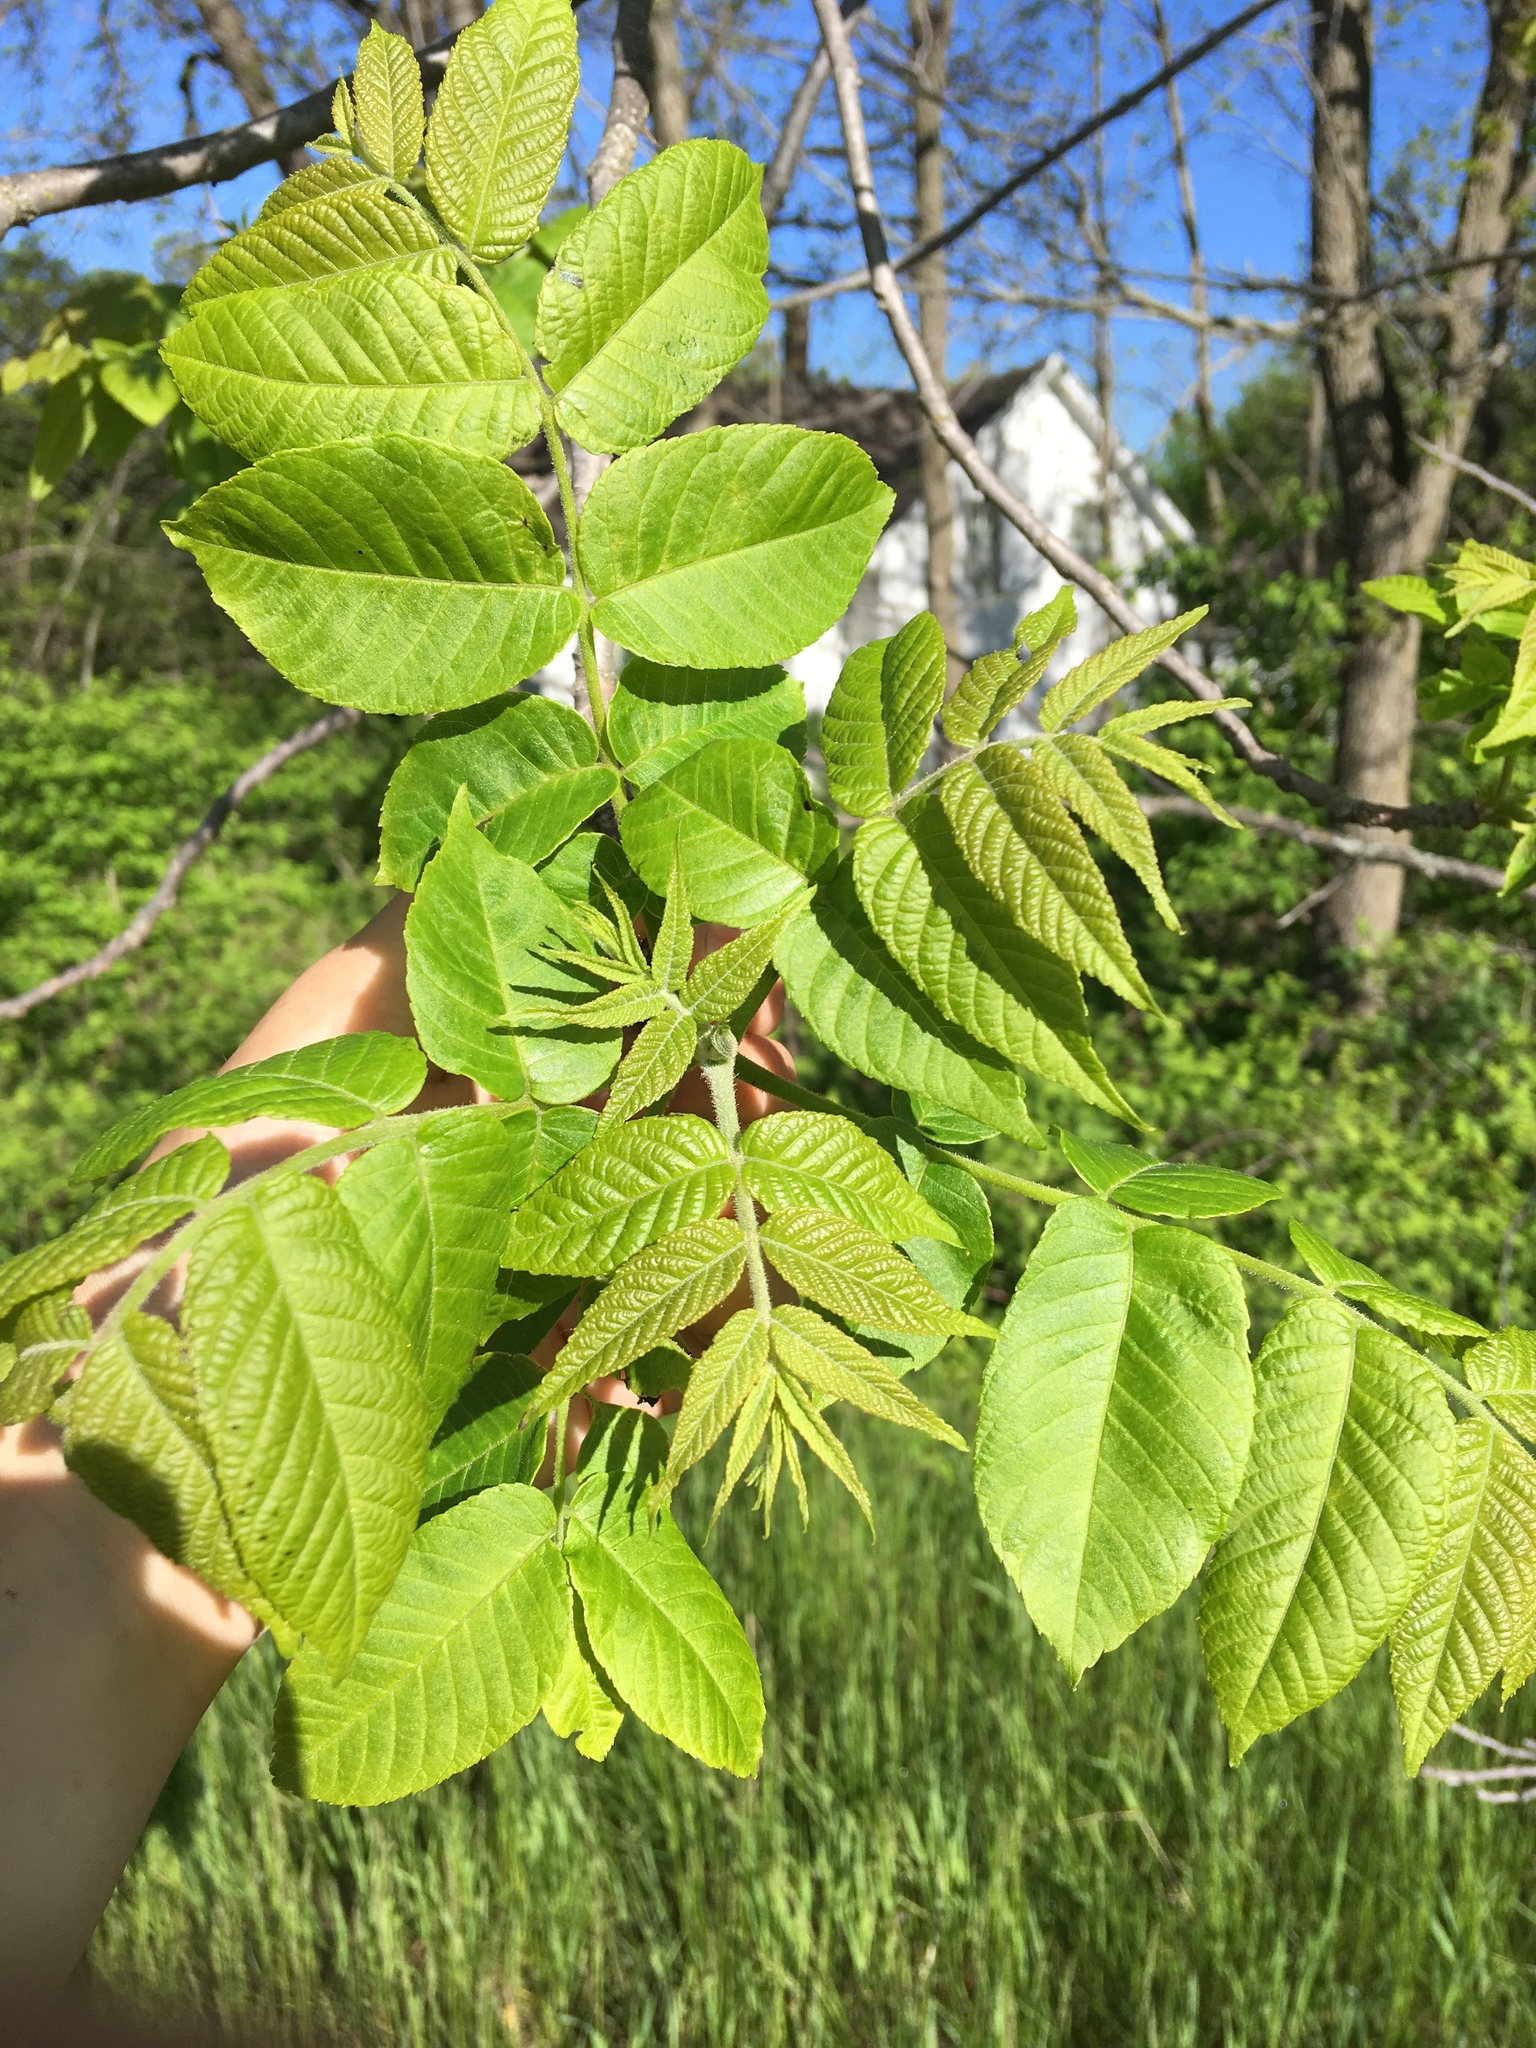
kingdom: Plantae
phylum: Tracheophyta
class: Magnoliopsida
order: Fagales
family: Juglandaceae
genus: Juglans
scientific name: Juglans nigra
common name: Black walnut
